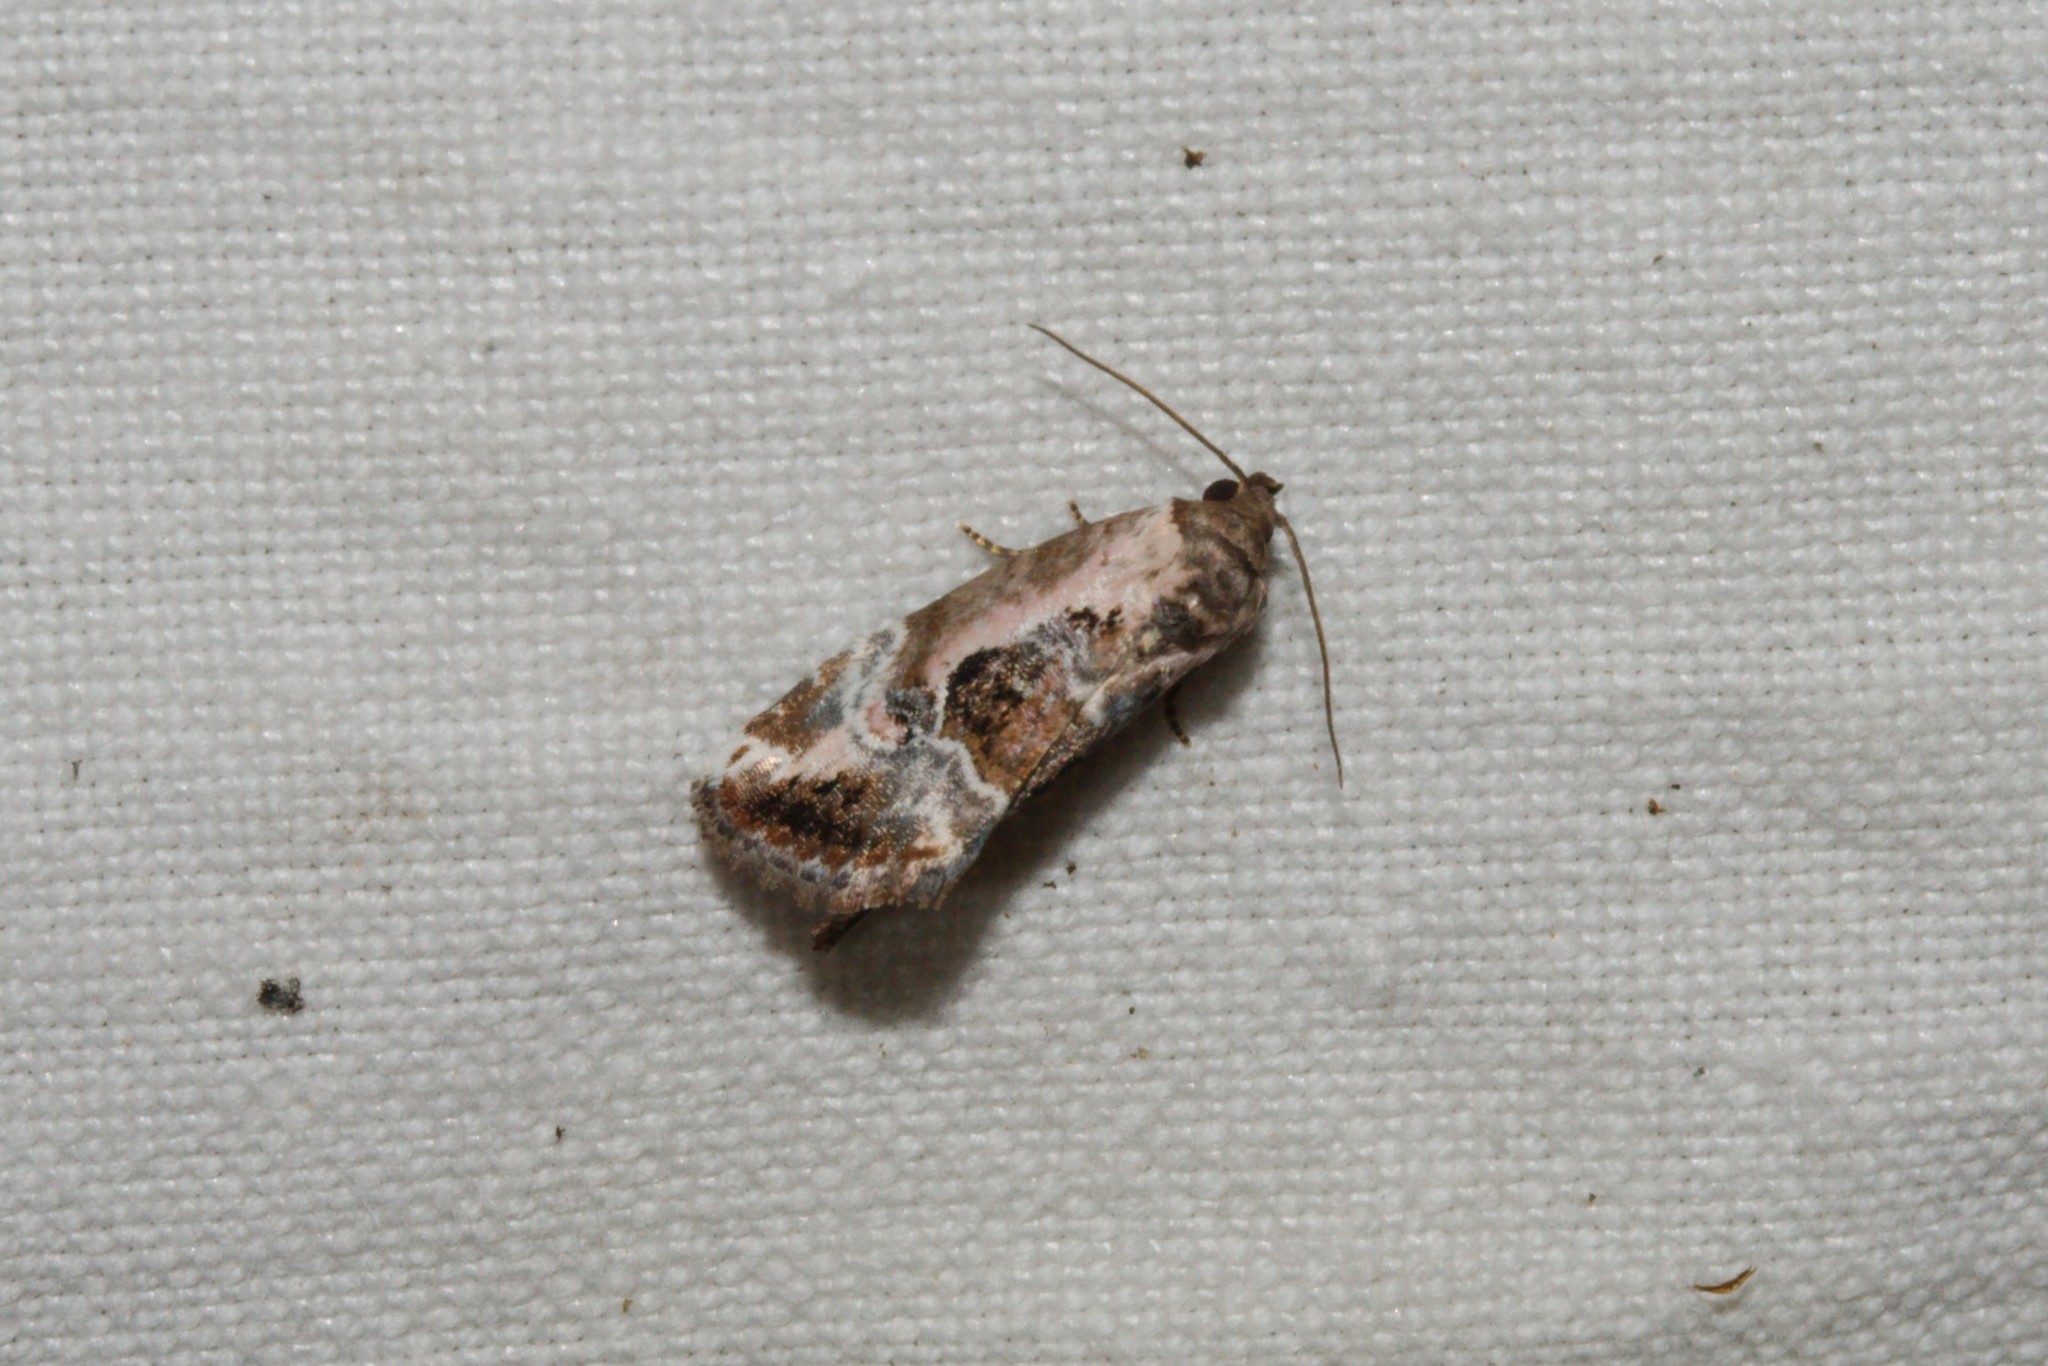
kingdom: Animalia
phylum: Arthropoda
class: Insecta
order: Lepidoptera
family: Noctuidae
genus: Elaphria
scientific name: Elaphria venustula
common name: Rosy marbled
